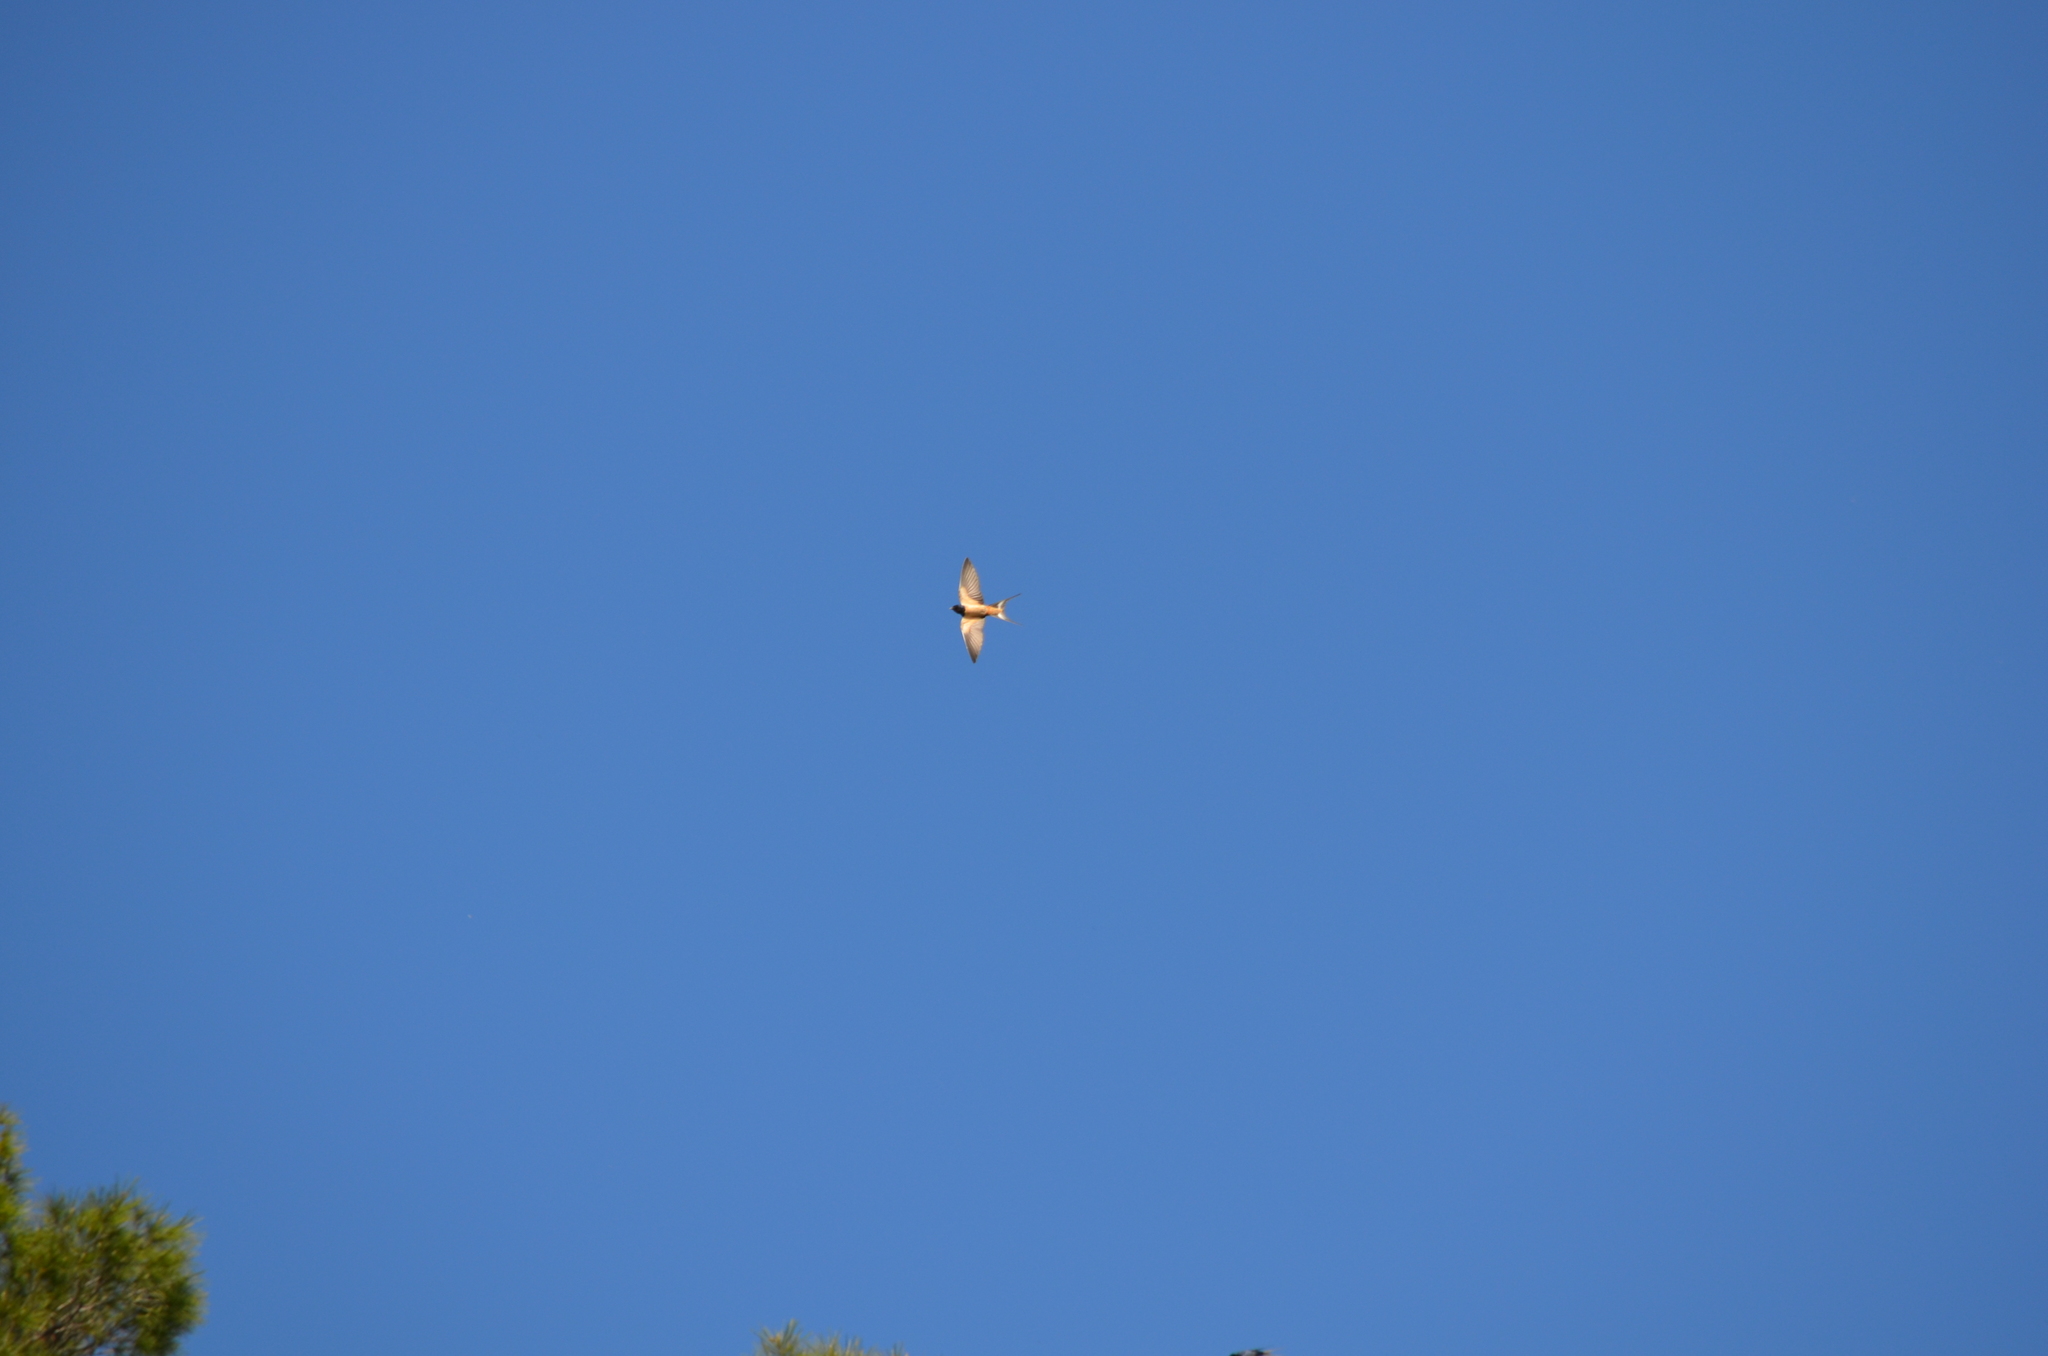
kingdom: Animalia
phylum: Chordata
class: Aves
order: Passeriformes
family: Hirundinidae
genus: Cecropis
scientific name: Cecropis daurica
